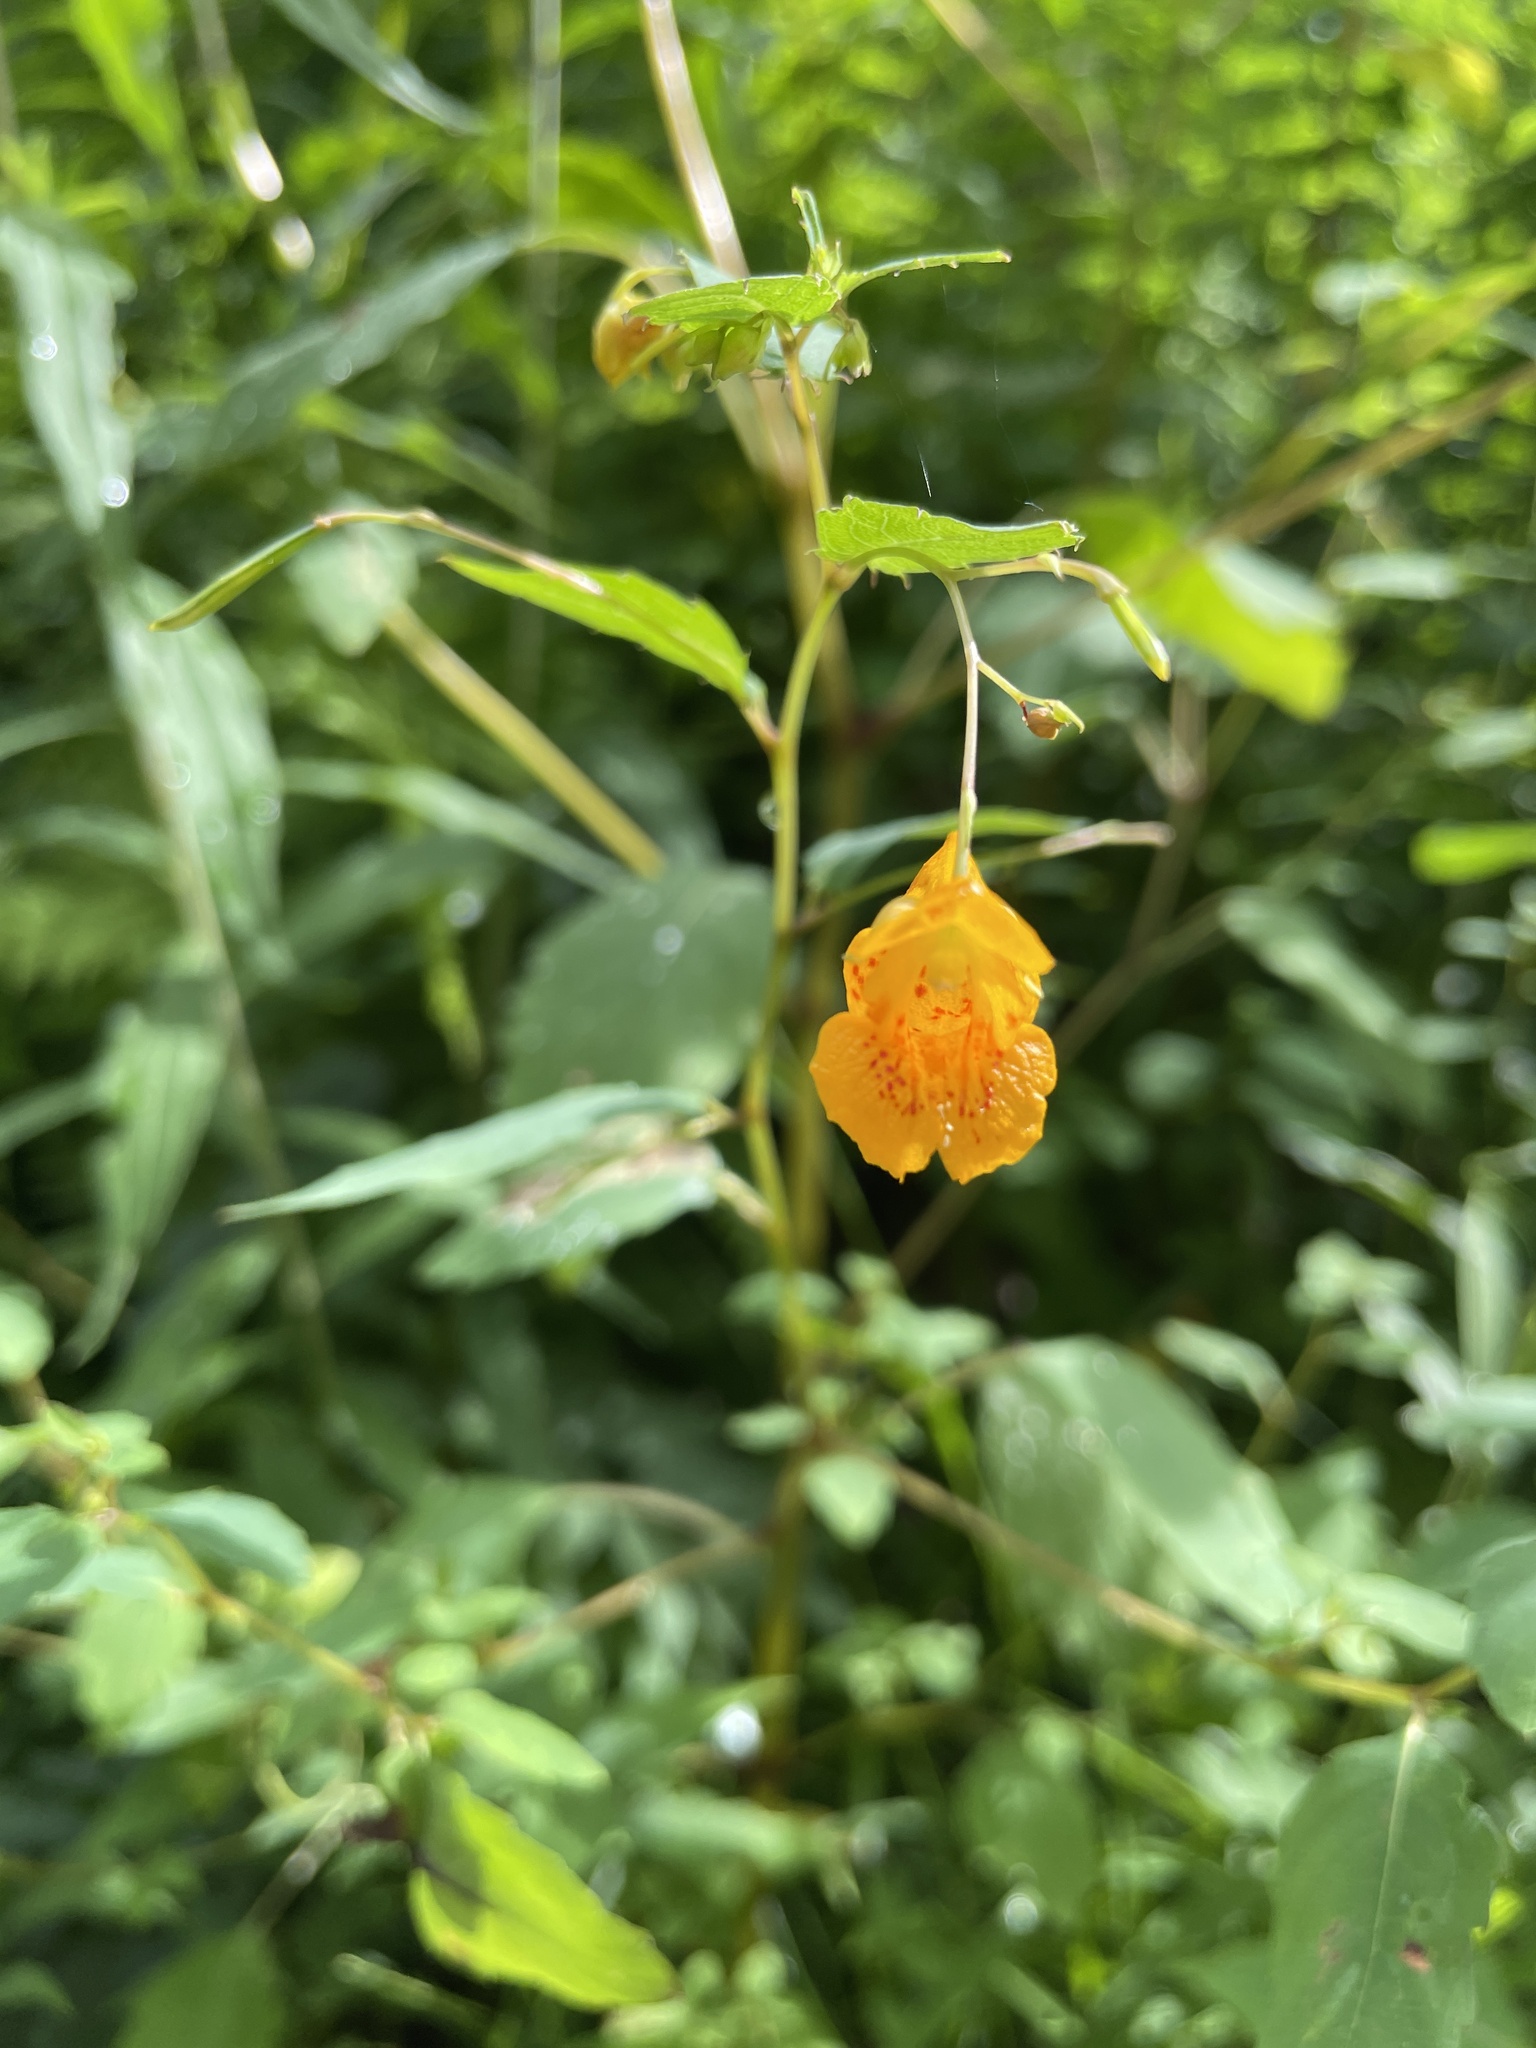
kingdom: Plantae
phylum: Tracheophyta
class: Magnoliopsida
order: Ericales
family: Balsaminaceae
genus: Impatiens
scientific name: Impatiens capensis
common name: Orange balsam
